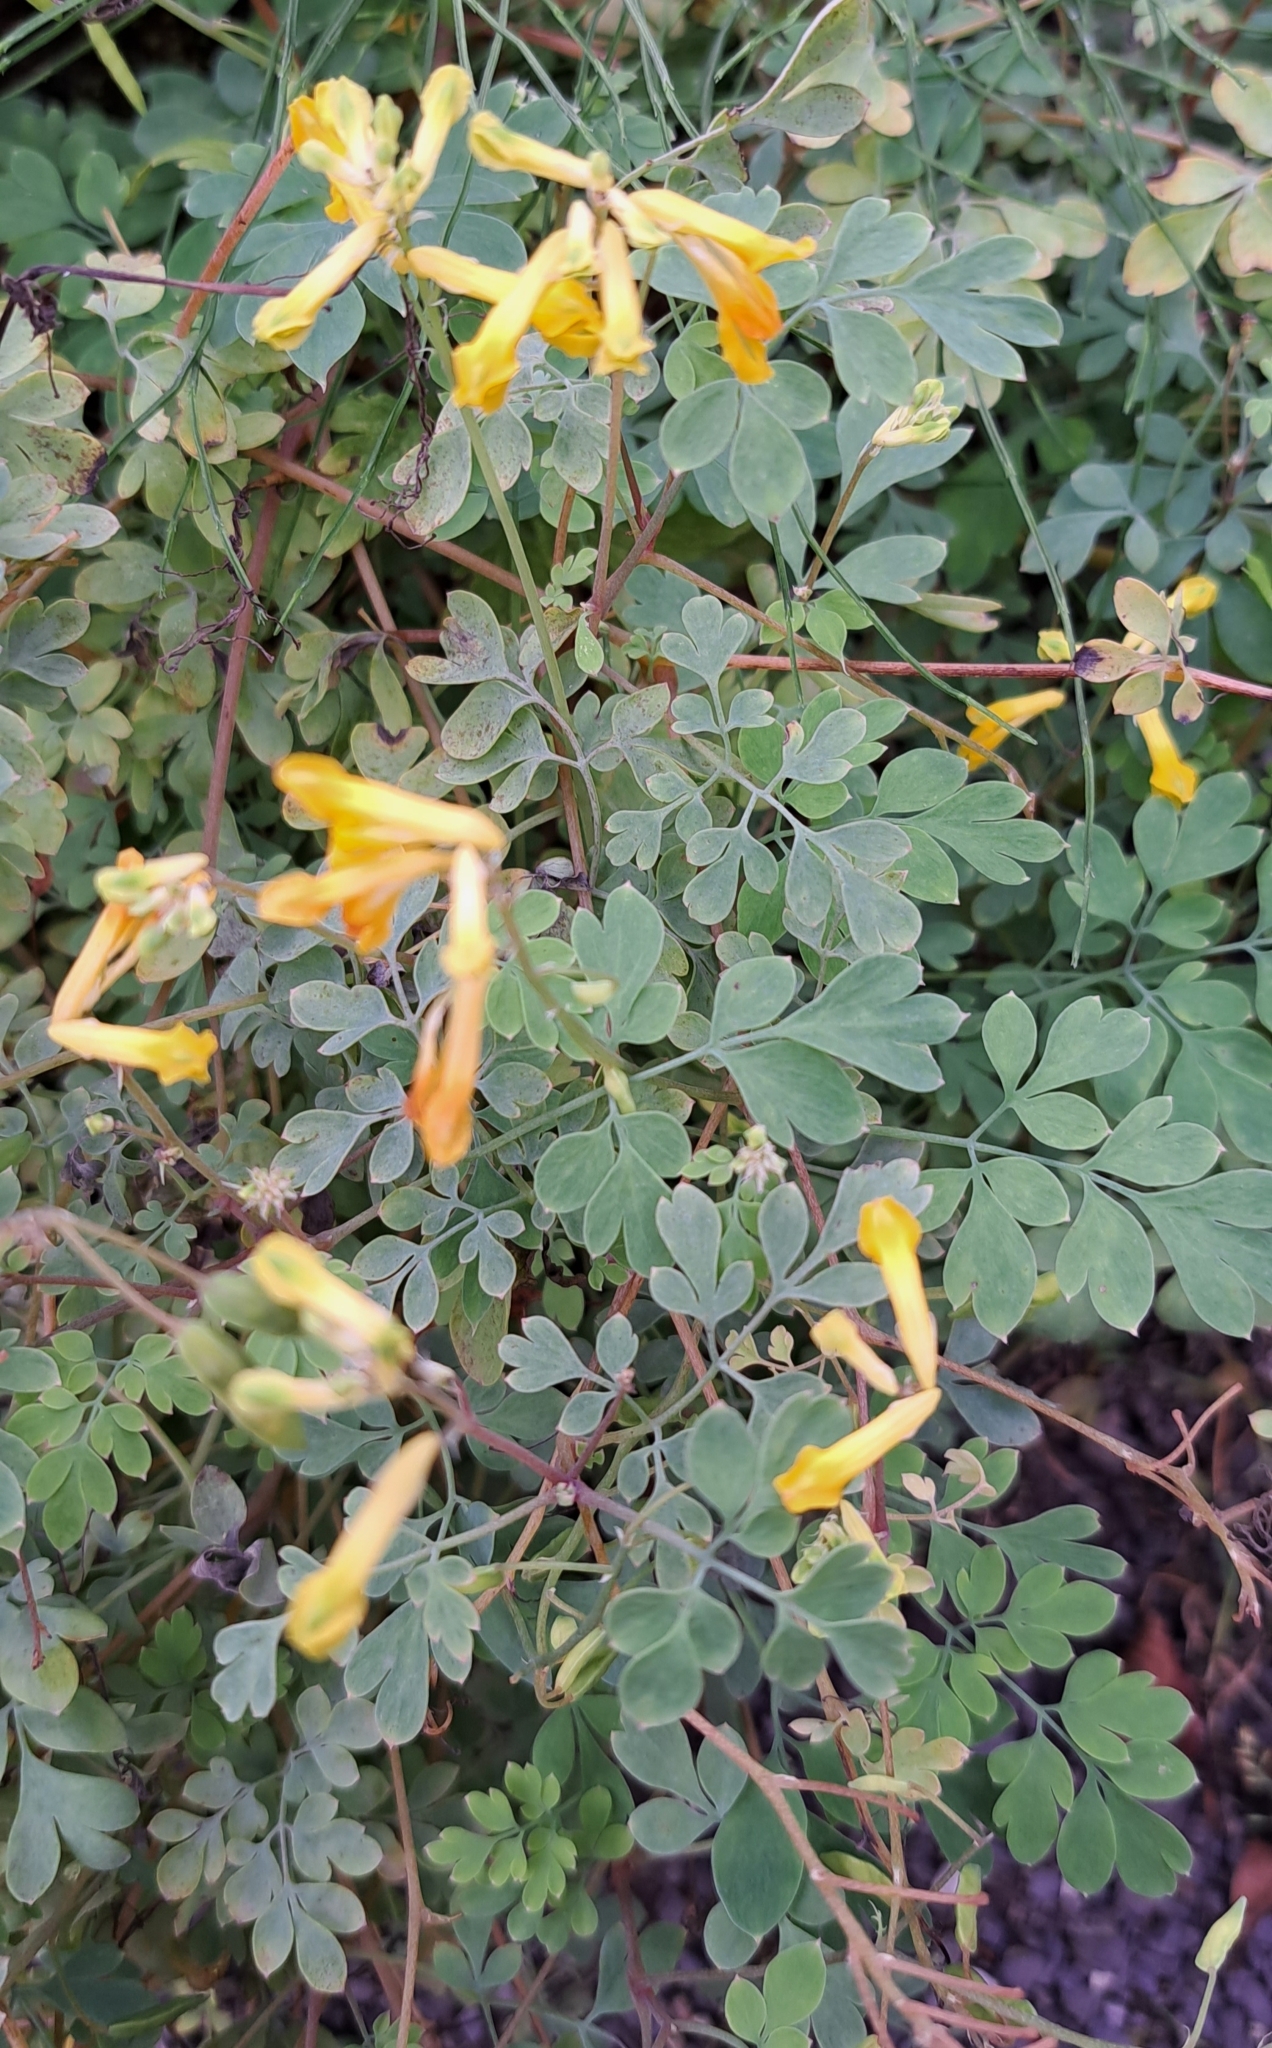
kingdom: Plantae
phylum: Tracheophyta
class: Magnoliopsida
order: Ranunculales
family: Papaveraceae
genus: Pseudofumaria
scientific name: Pseudofumaria lutea
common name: Yellow corydalis
